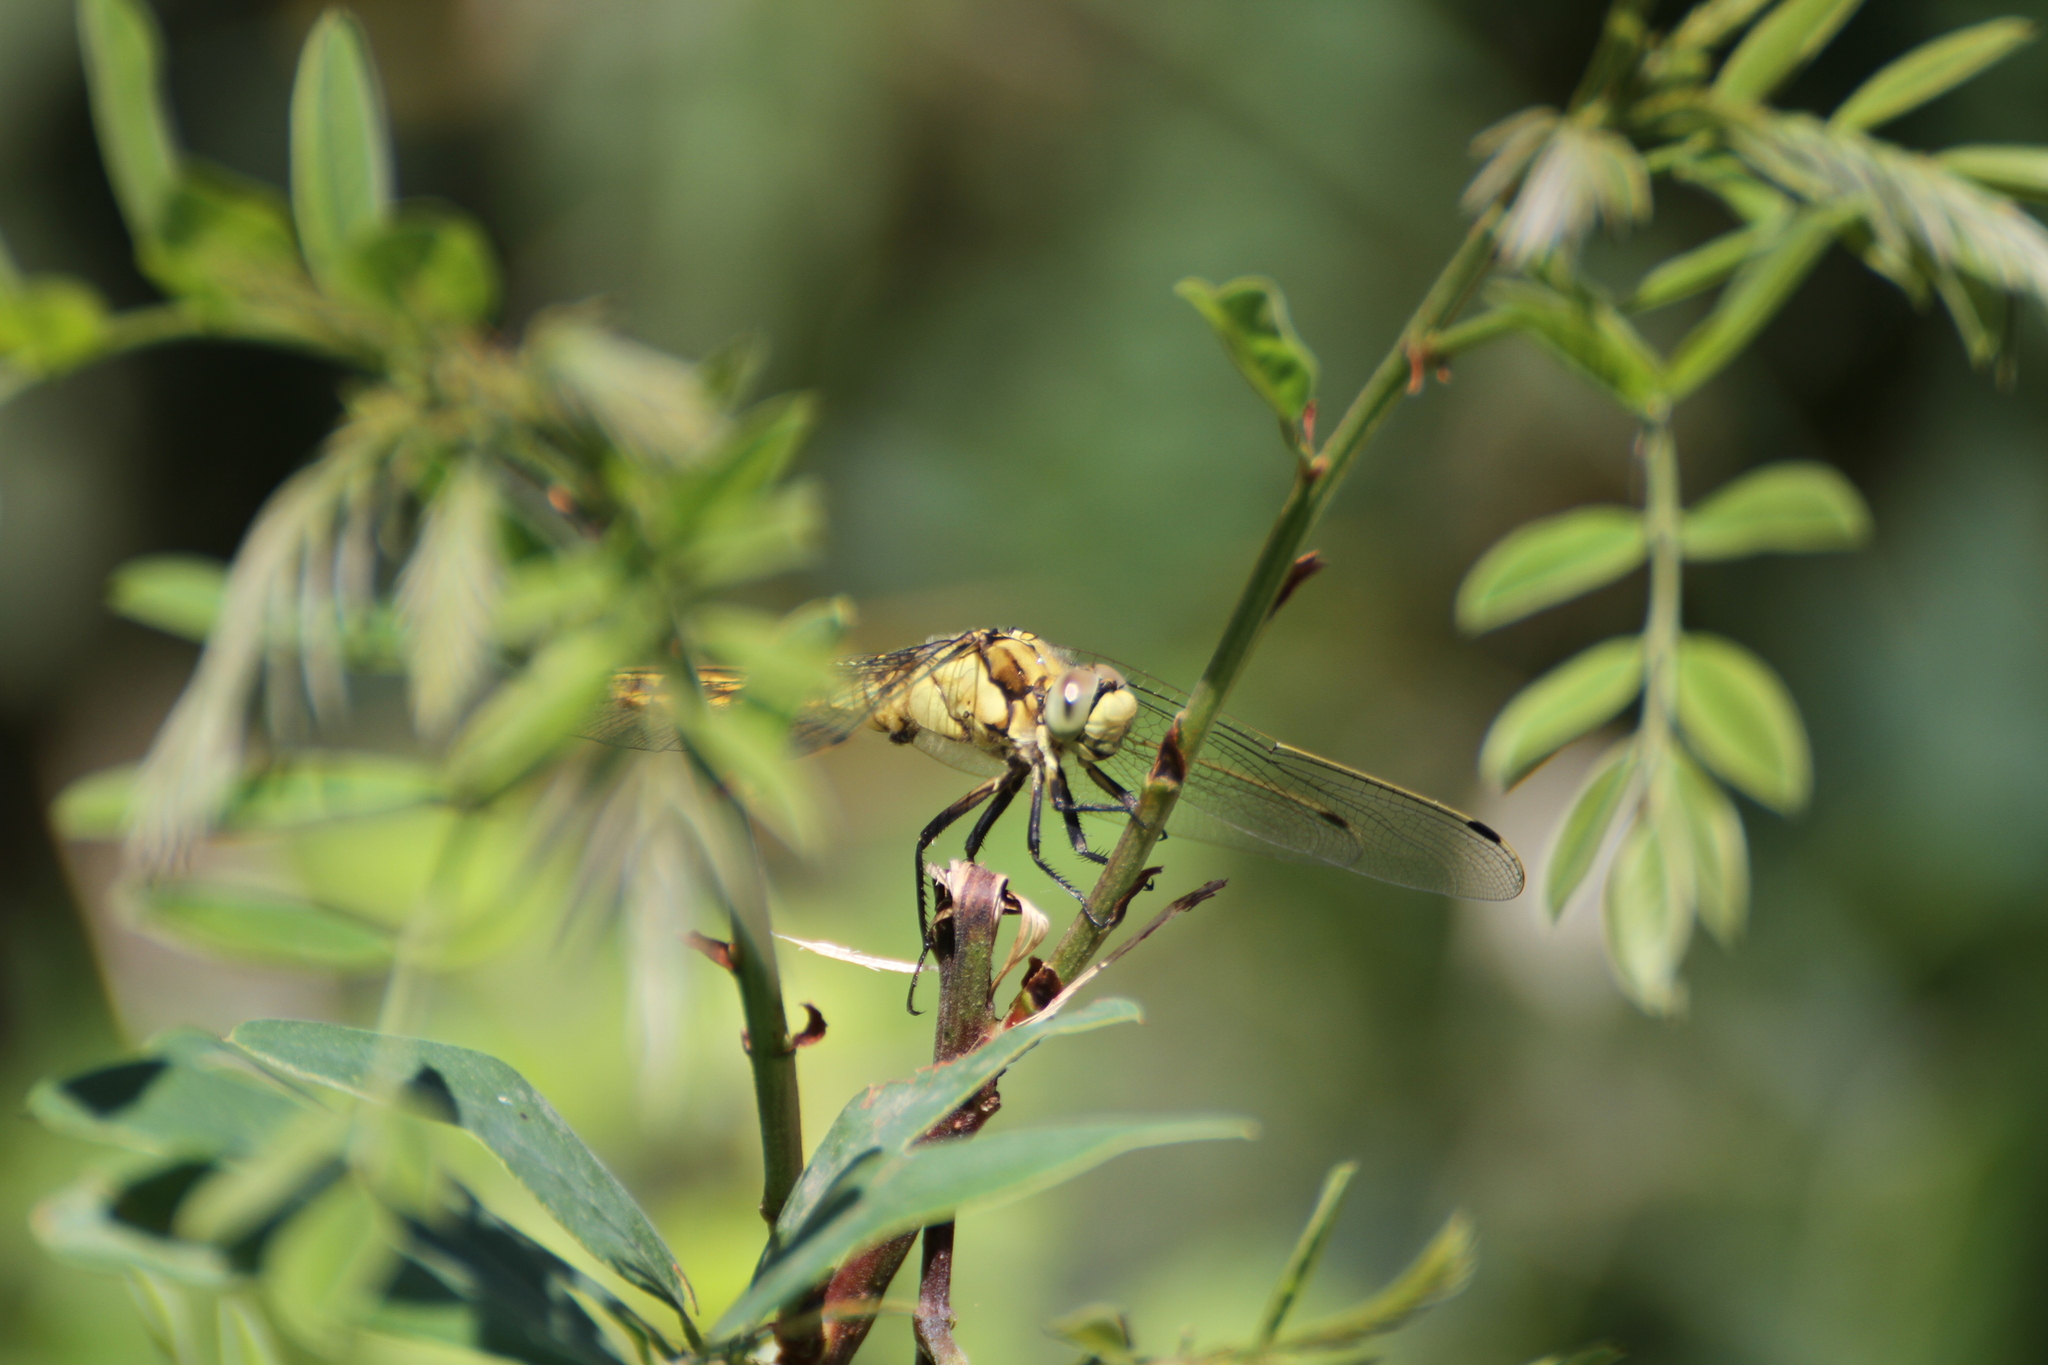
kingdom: Animalia
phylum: Arthropoda
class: Insecta
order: Odonata
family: Libellulidae
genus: Orthetrum
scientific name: Orthetrum cancellatum
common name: Black-tailed skimmer
